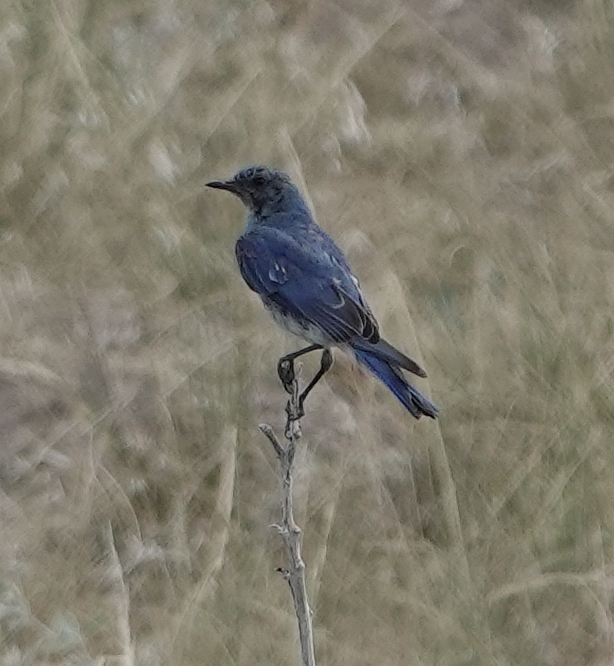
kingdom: Animalia
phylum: Chordata
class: Aves
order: Passeriformes
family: Turdidae
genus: Sialia
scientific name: Sialia currucoides
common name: Mountain bluebird
